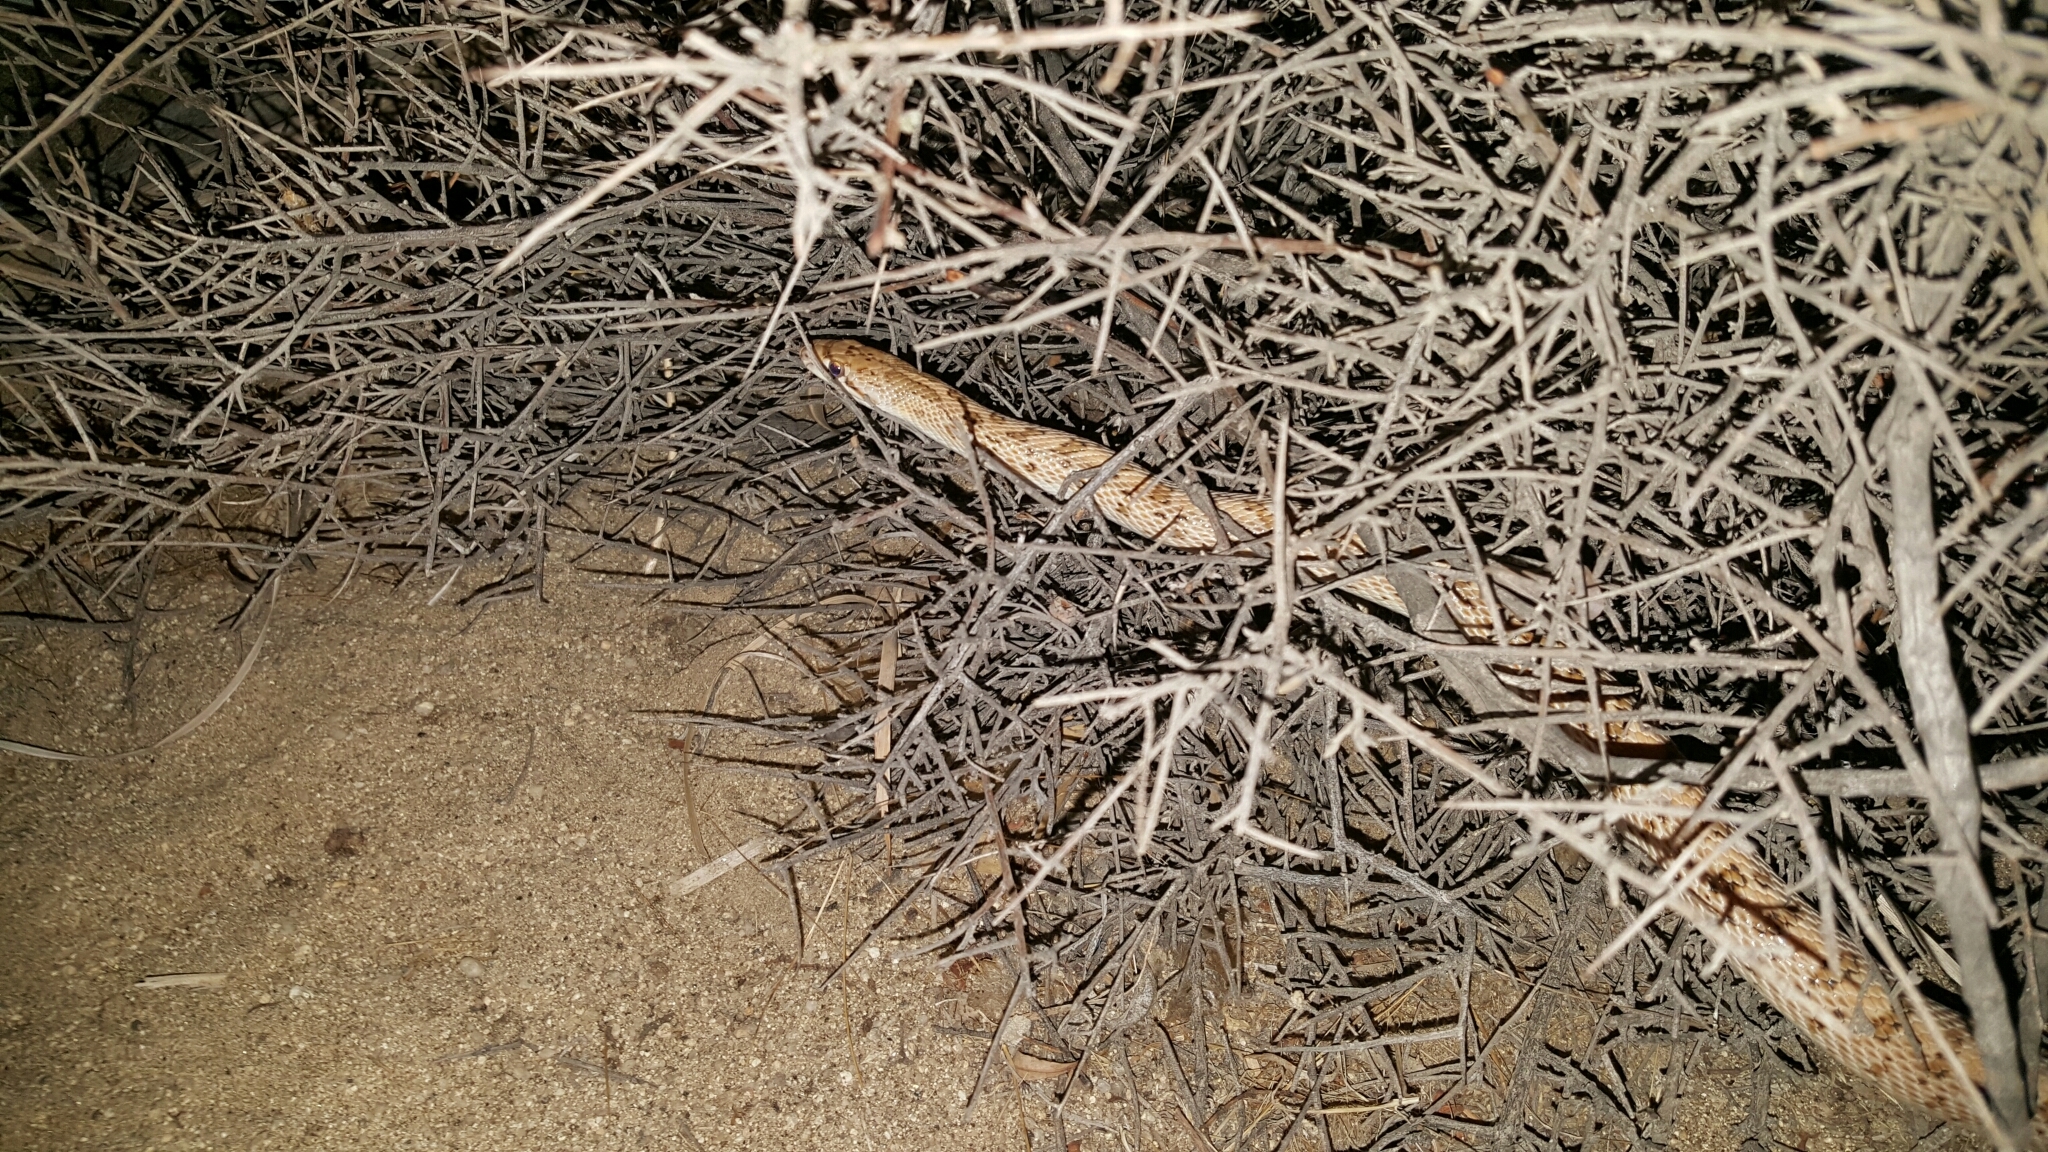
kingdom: Animalia
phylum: Chordata
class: Squamata
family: Colubridae
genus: Arizona
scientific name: Arizona elegans
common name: Glossy snake
